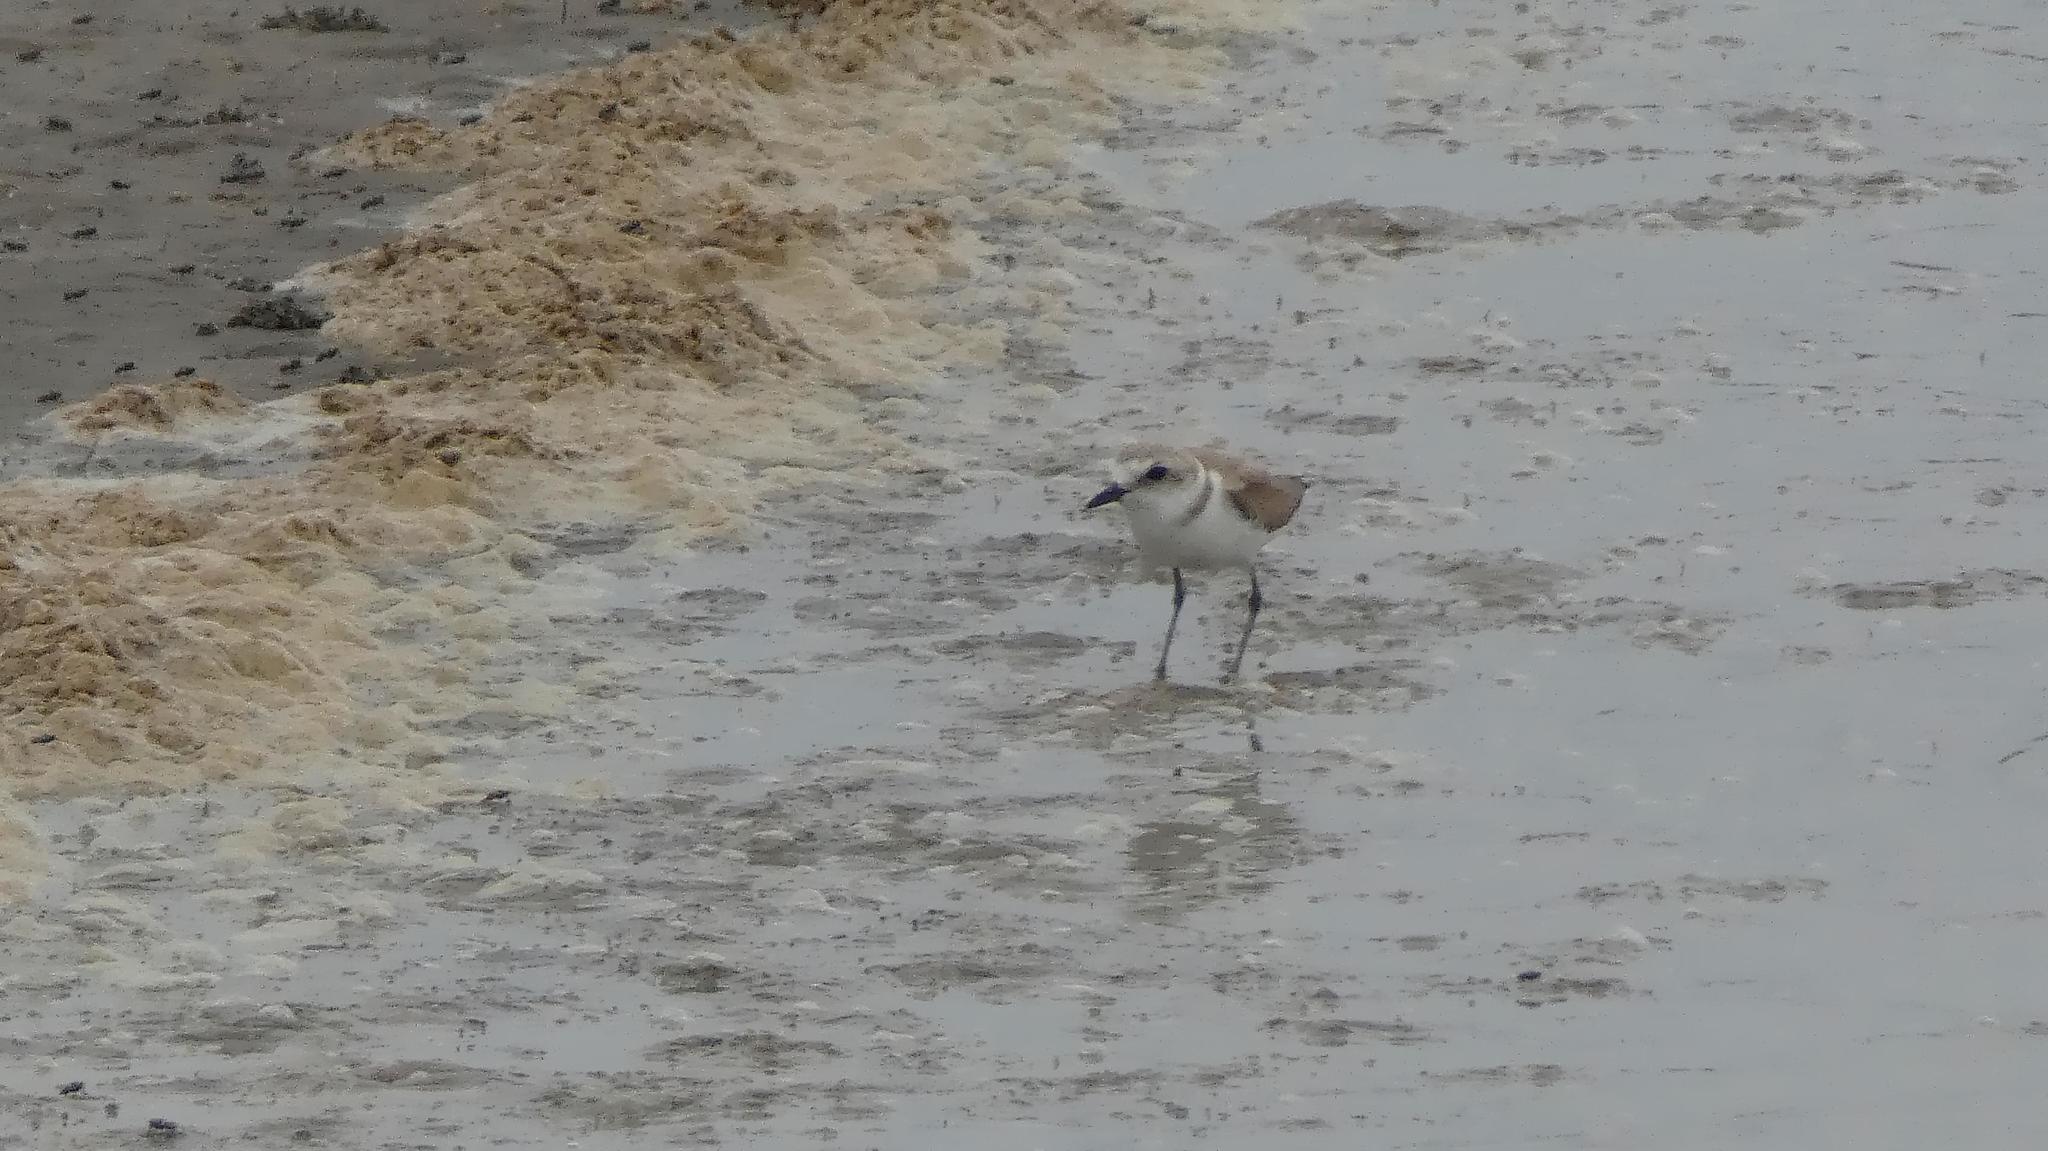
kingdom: Animalia
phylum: Chordata
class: Aves
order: Charadriiformes
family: Charadriidae
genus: Charadrius
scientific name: Charadrius alexandrinus
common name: Kentish plover
